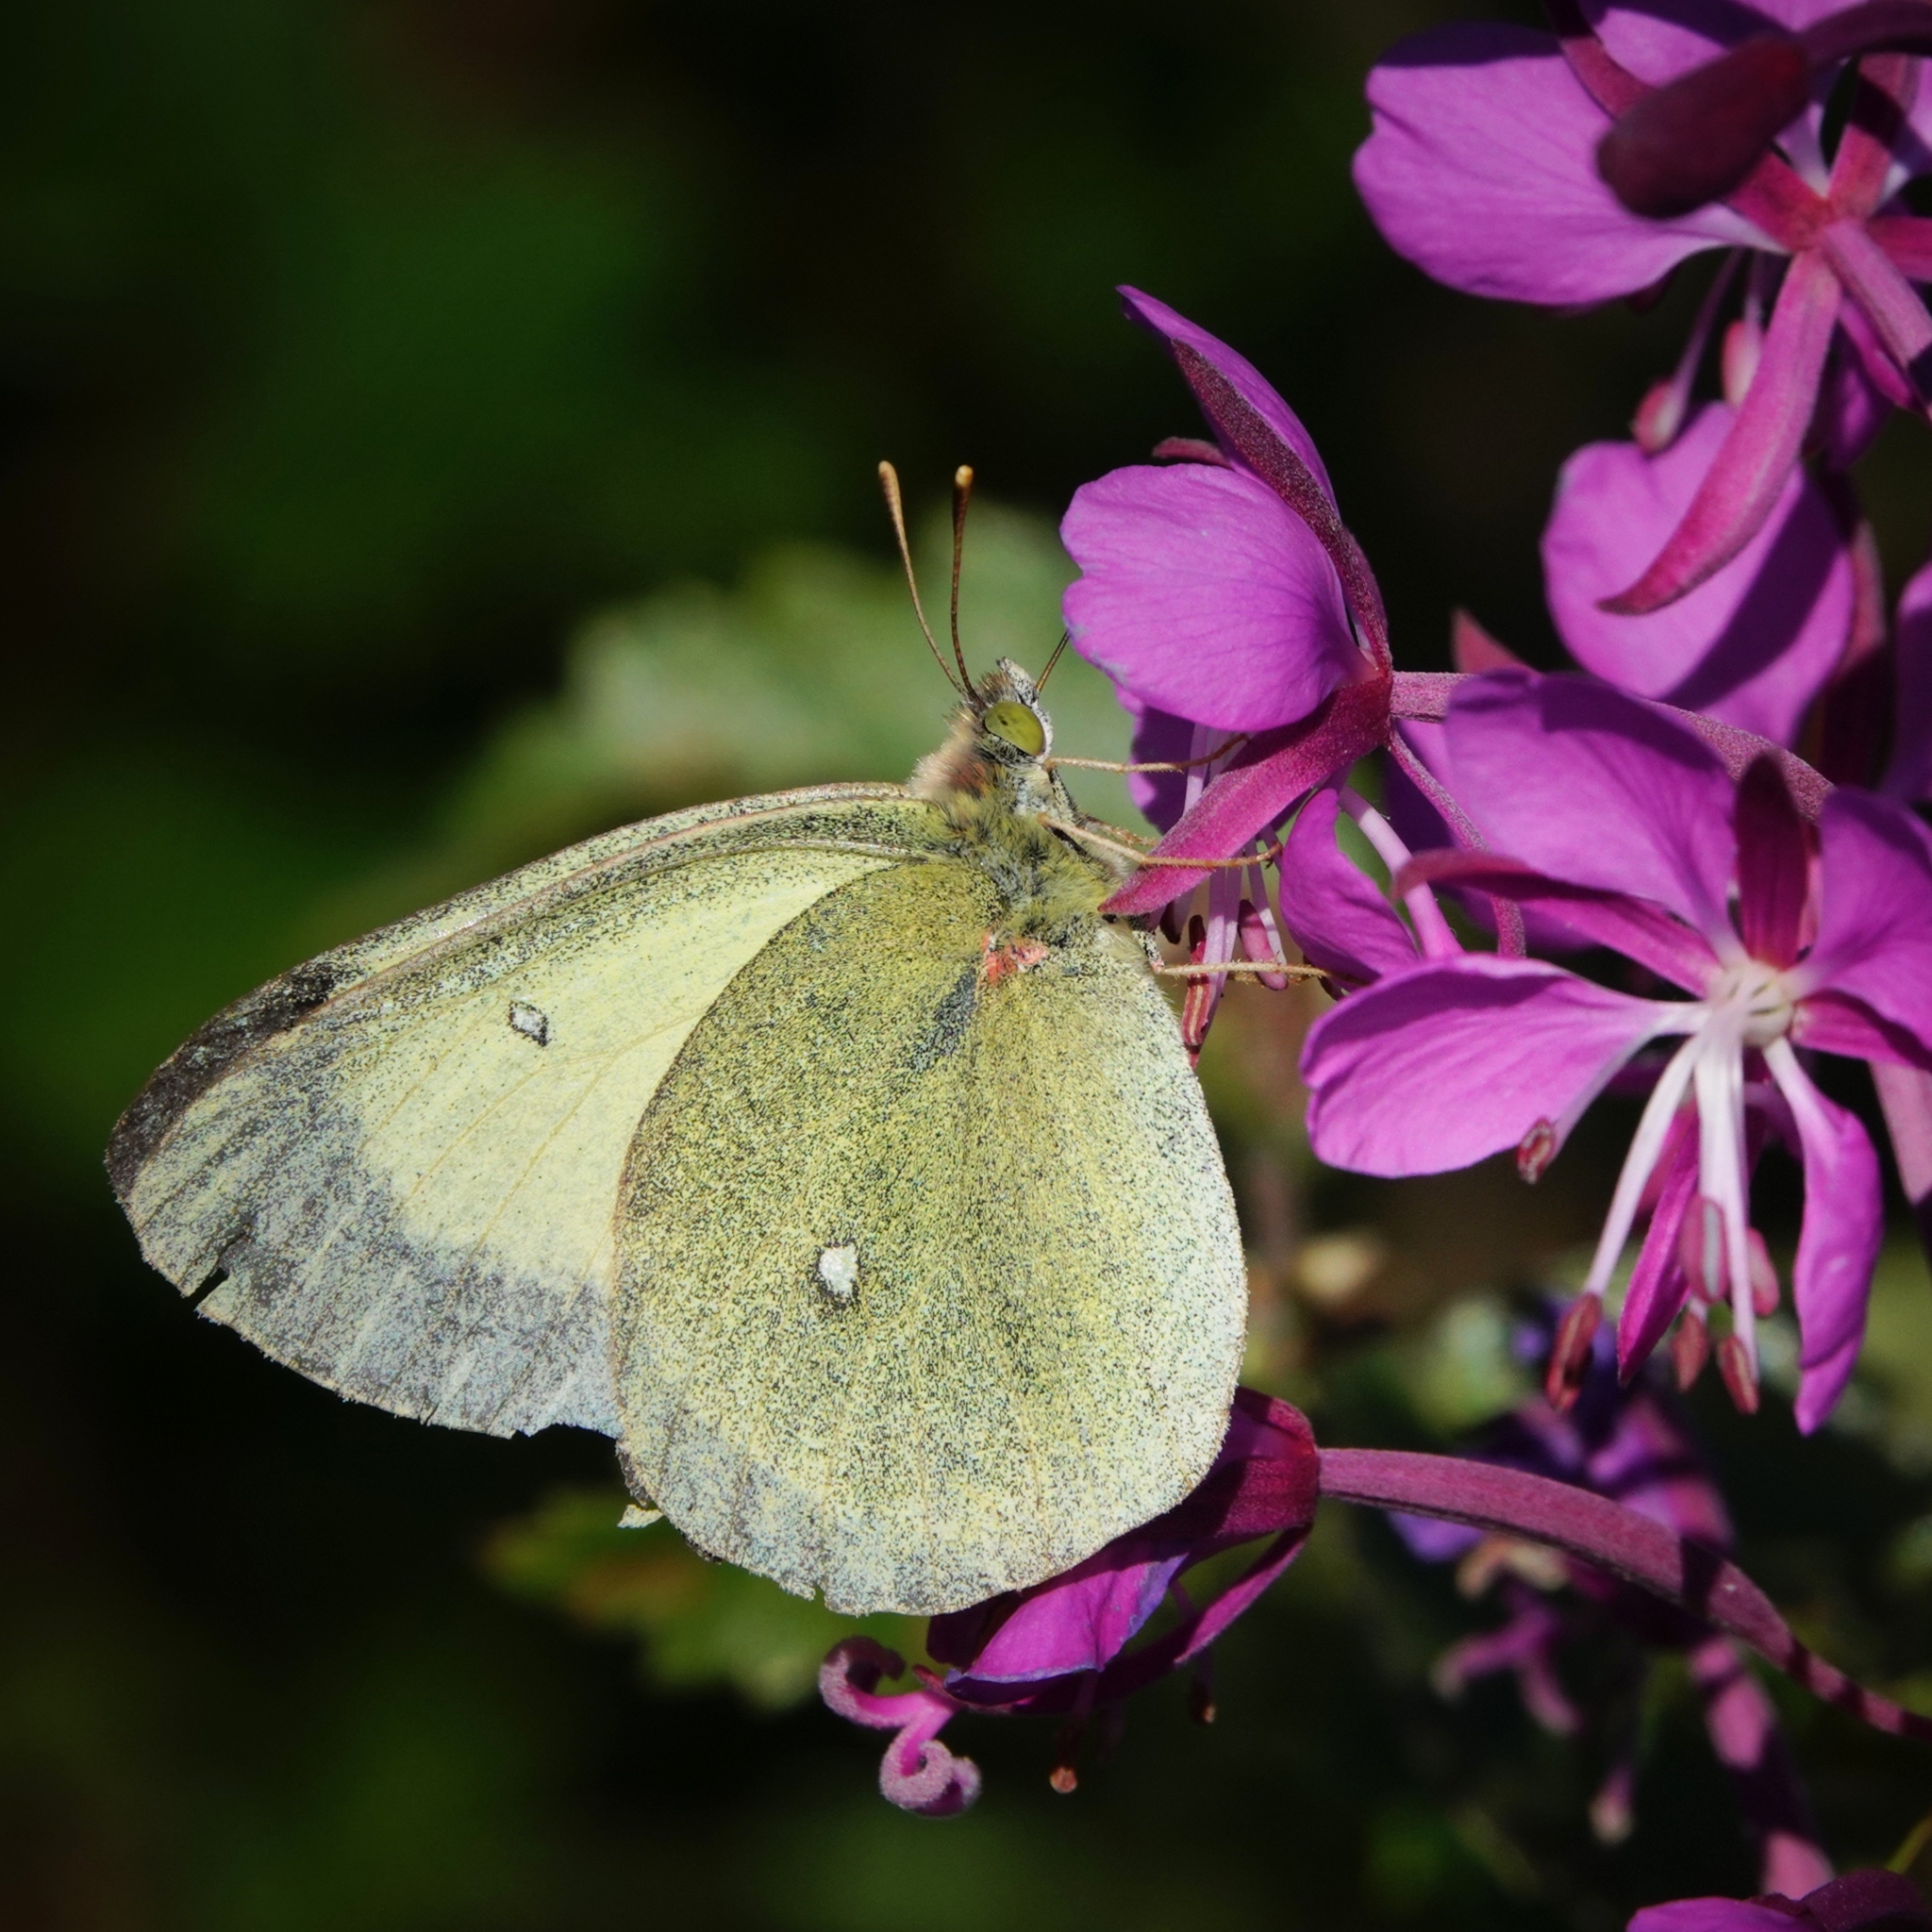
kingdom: Animalia
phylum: Arthropoda
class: Insecta
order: Lepidoptera
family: Pieridae
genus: Colias
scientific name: Colias palaeno
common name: Moorland clouded yellow
